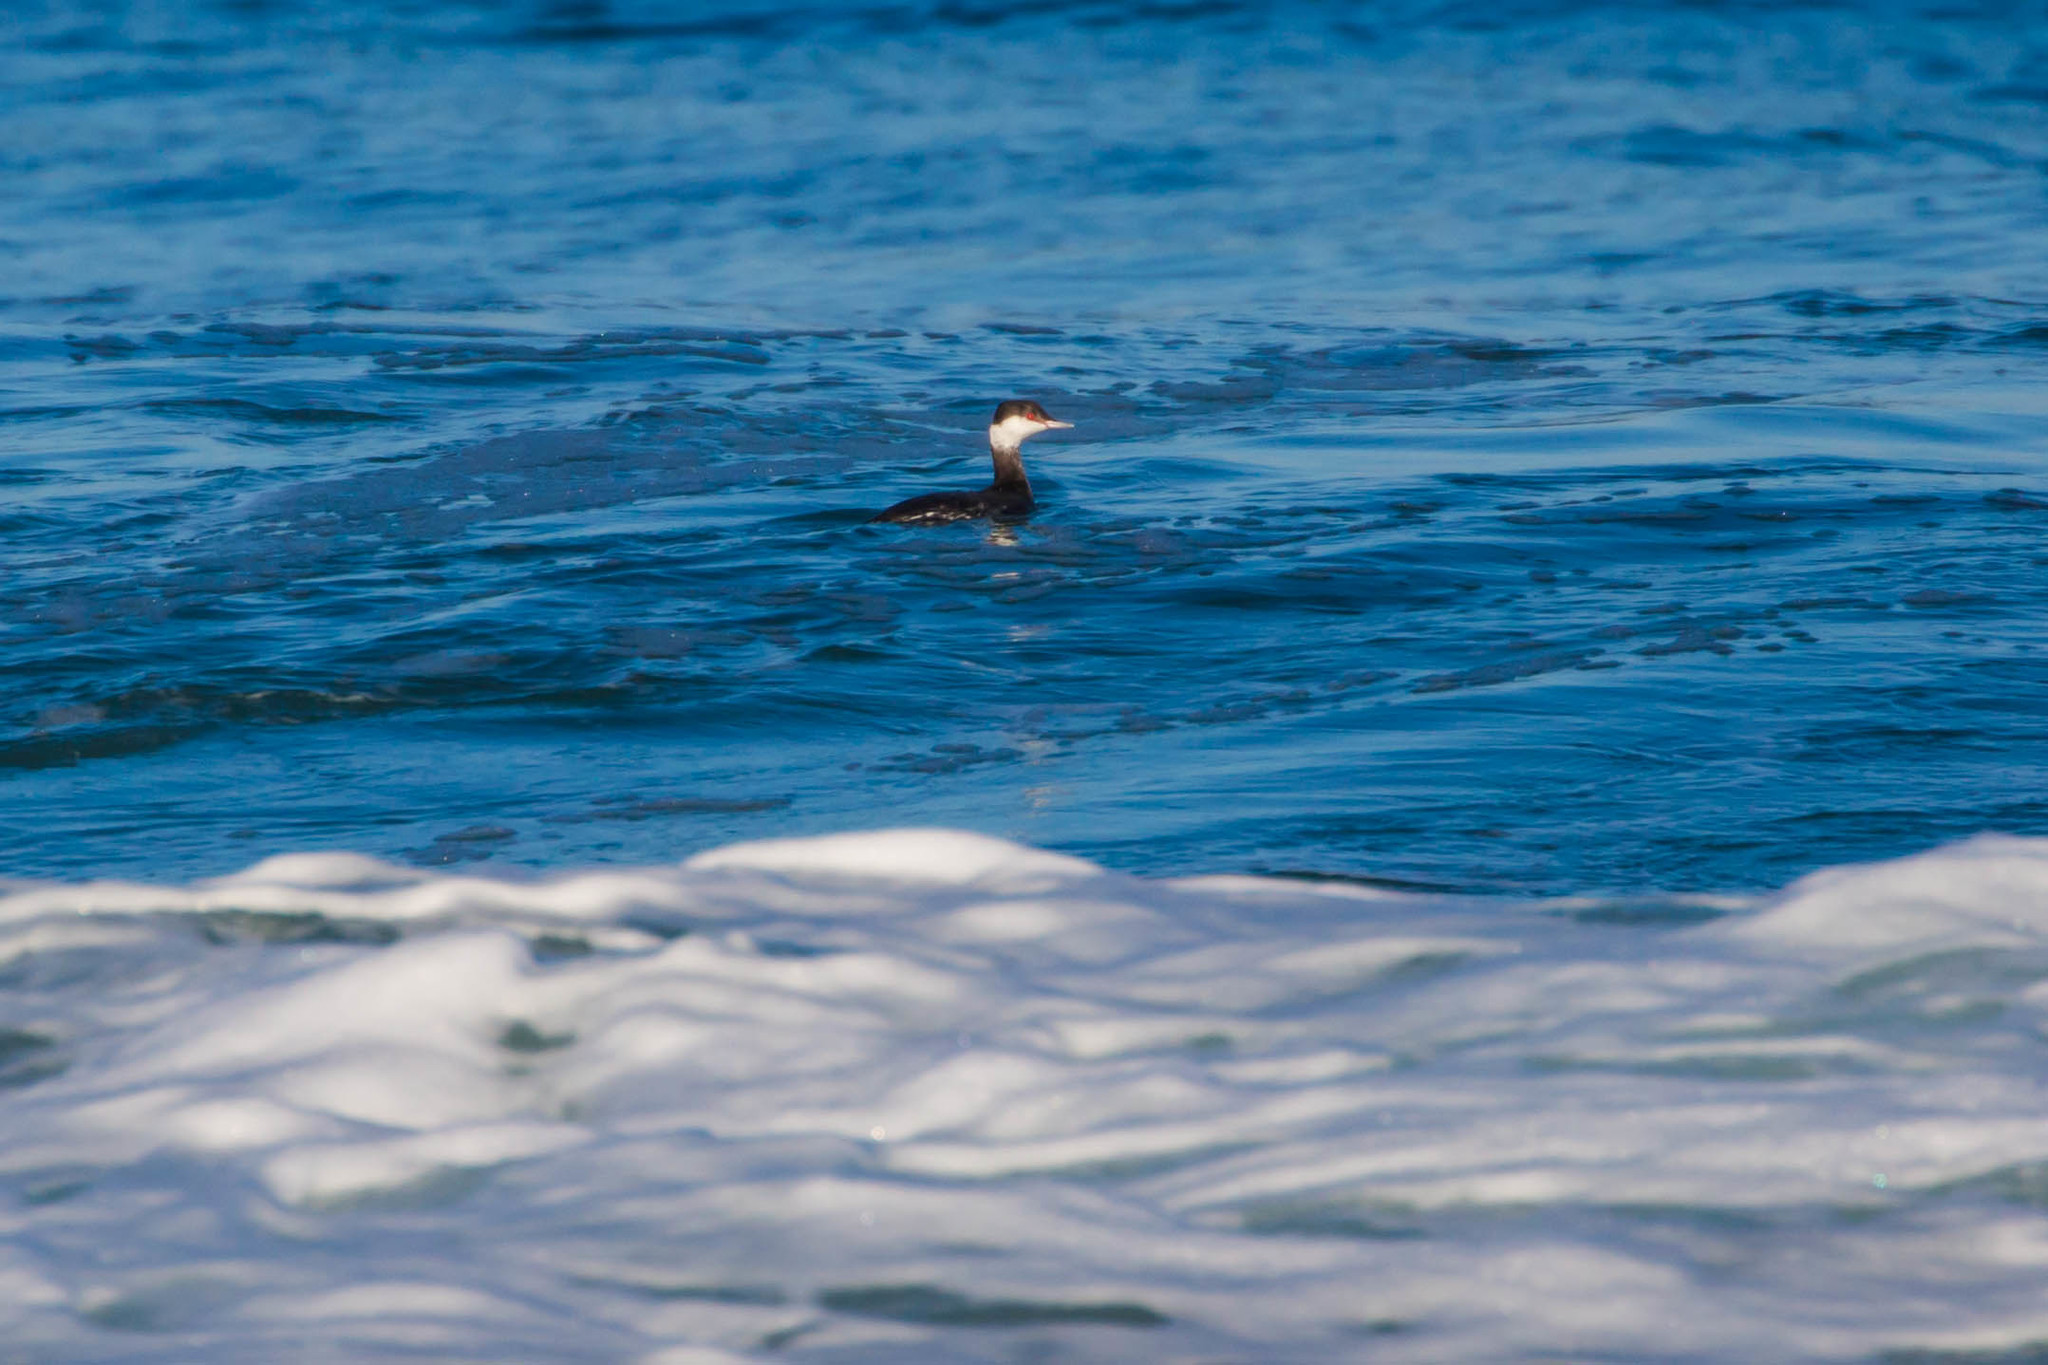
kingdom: Animalia
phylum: Chordata
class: Aves
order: Podicipediformes
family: Podicipedidae
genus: Podiceps
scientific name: Podiceps auritus
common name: Horned grebe
